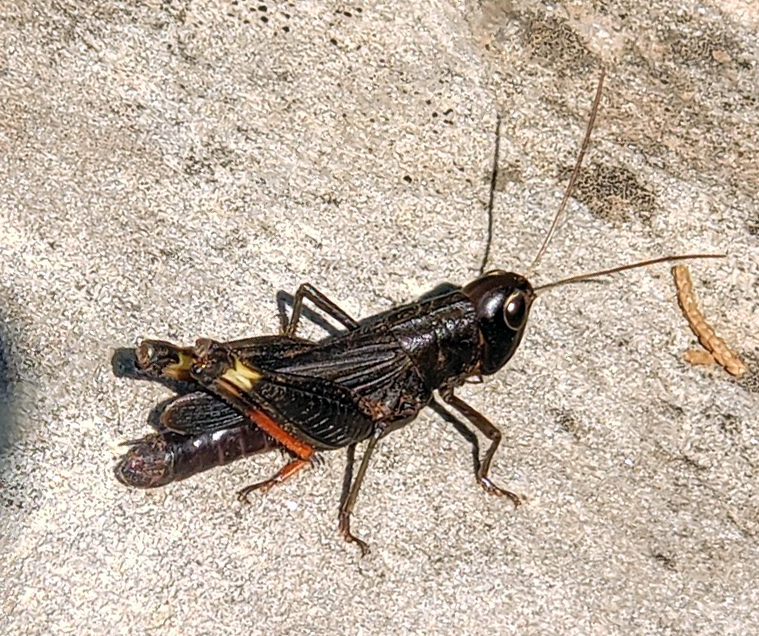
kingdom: Animalia
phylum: Arthropoda
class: Insecta
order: Orthoptera
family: Acrididae
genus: Boopedon
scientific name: Boopedon nubilum
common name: Ebony grasshopper
